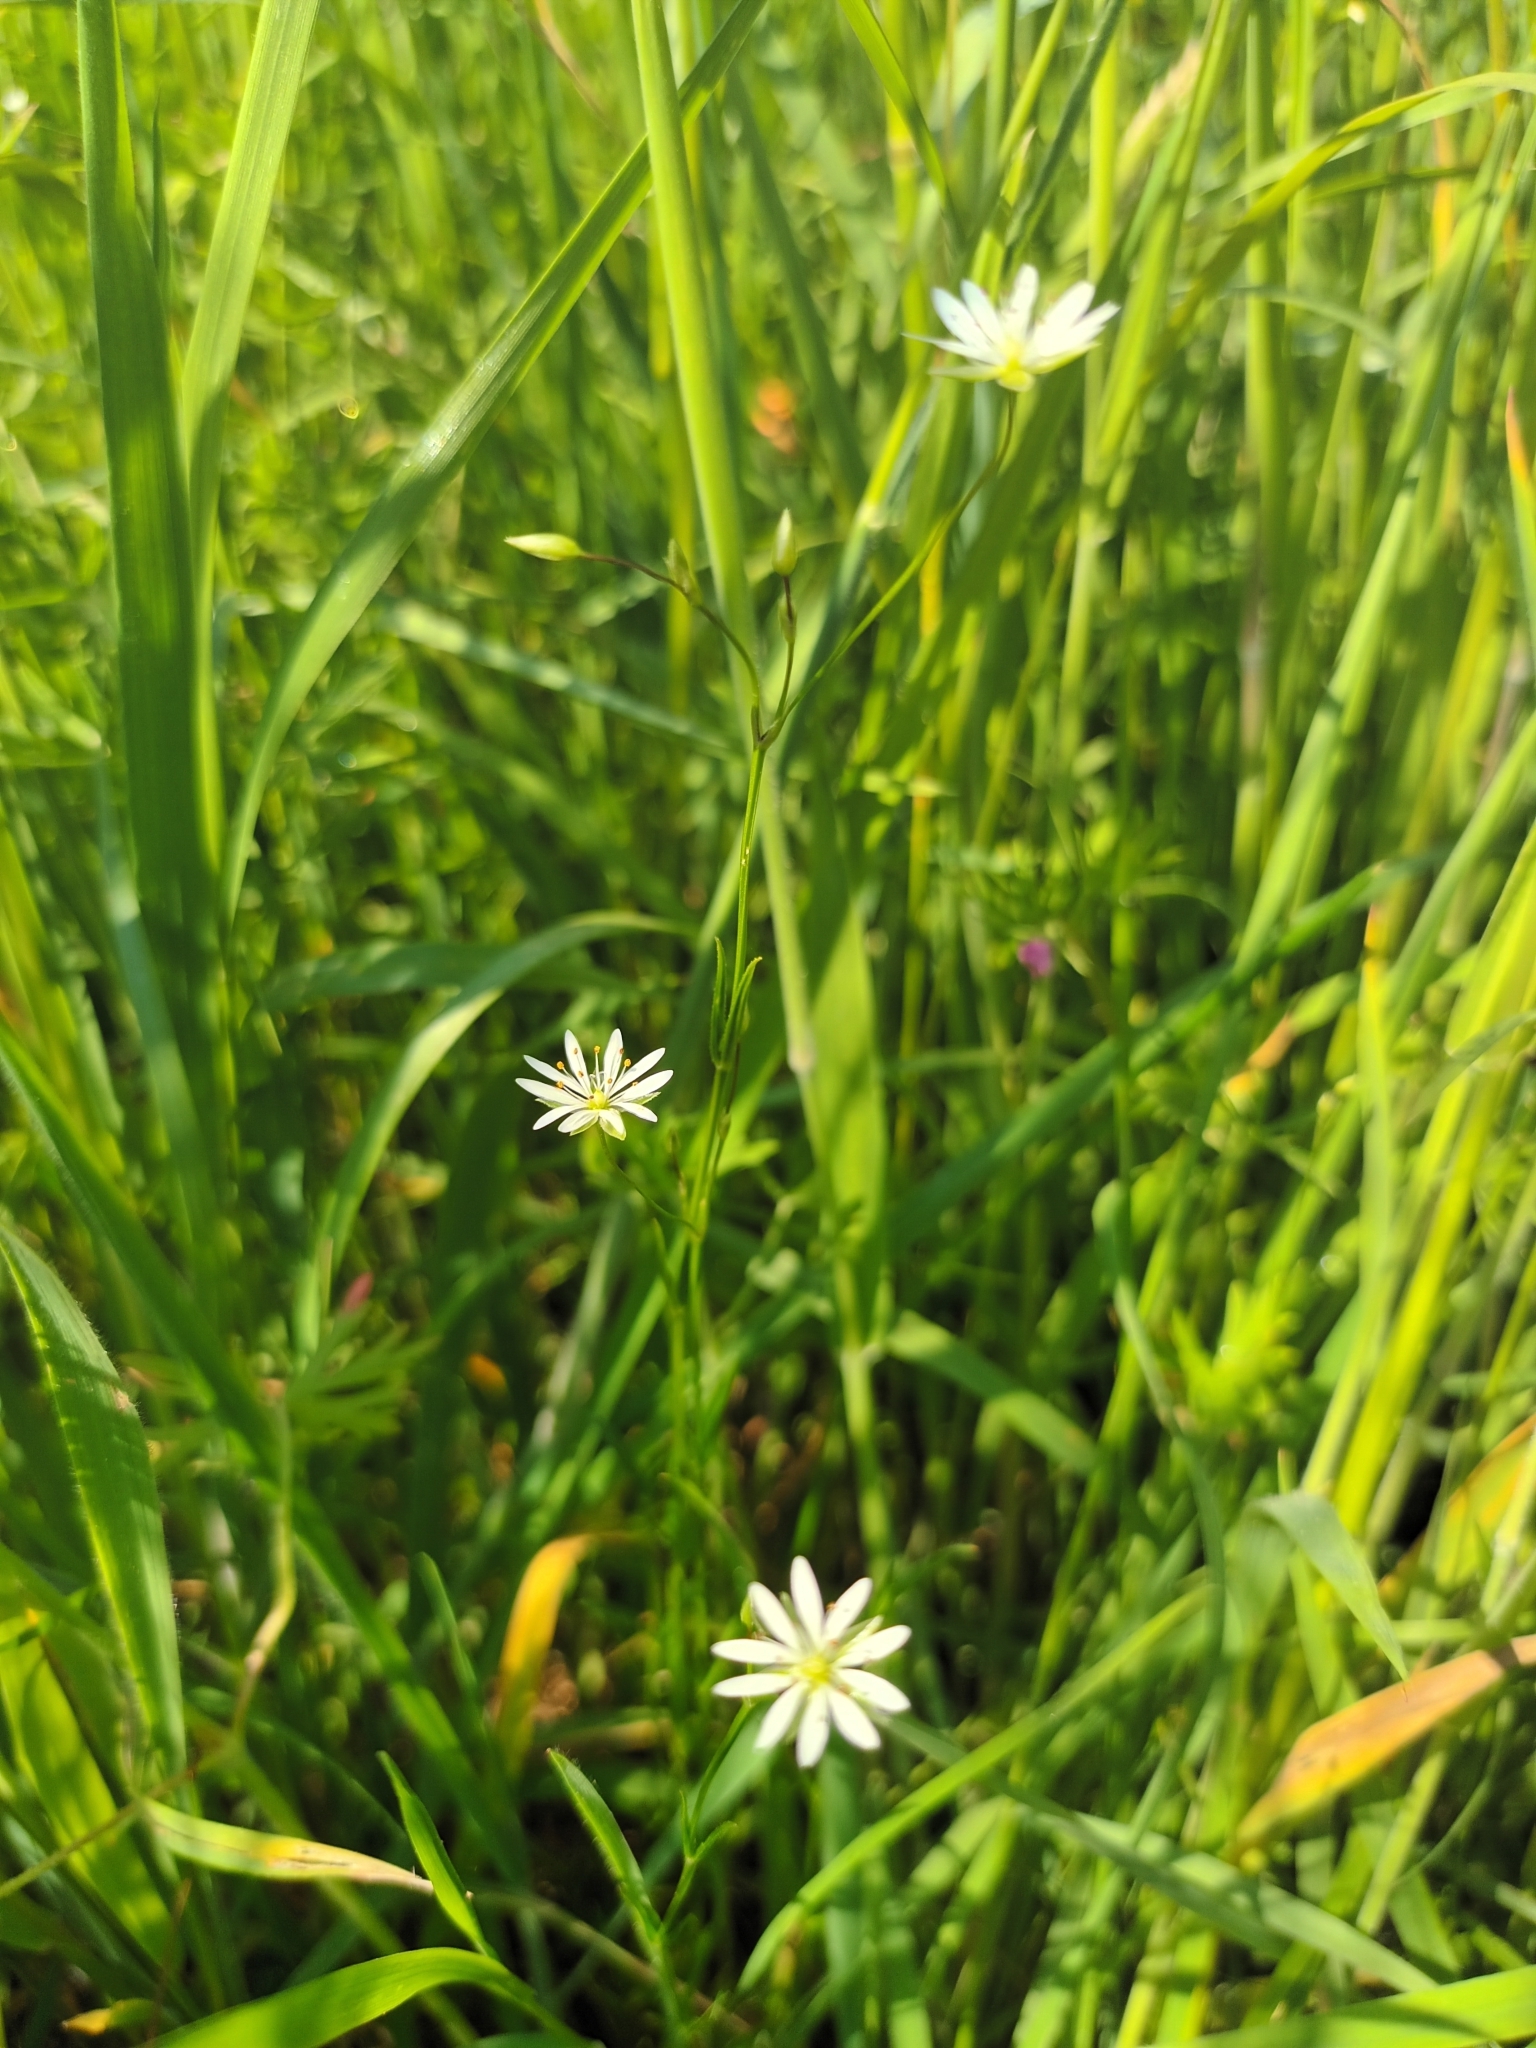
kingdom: Plantae
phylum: Tracheophyta
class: Magnoliopsida
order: Caryophyllales
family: Caryophyllaceae
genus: Stellaria
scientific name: Stellaria graminea
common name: Grass-like starwort
